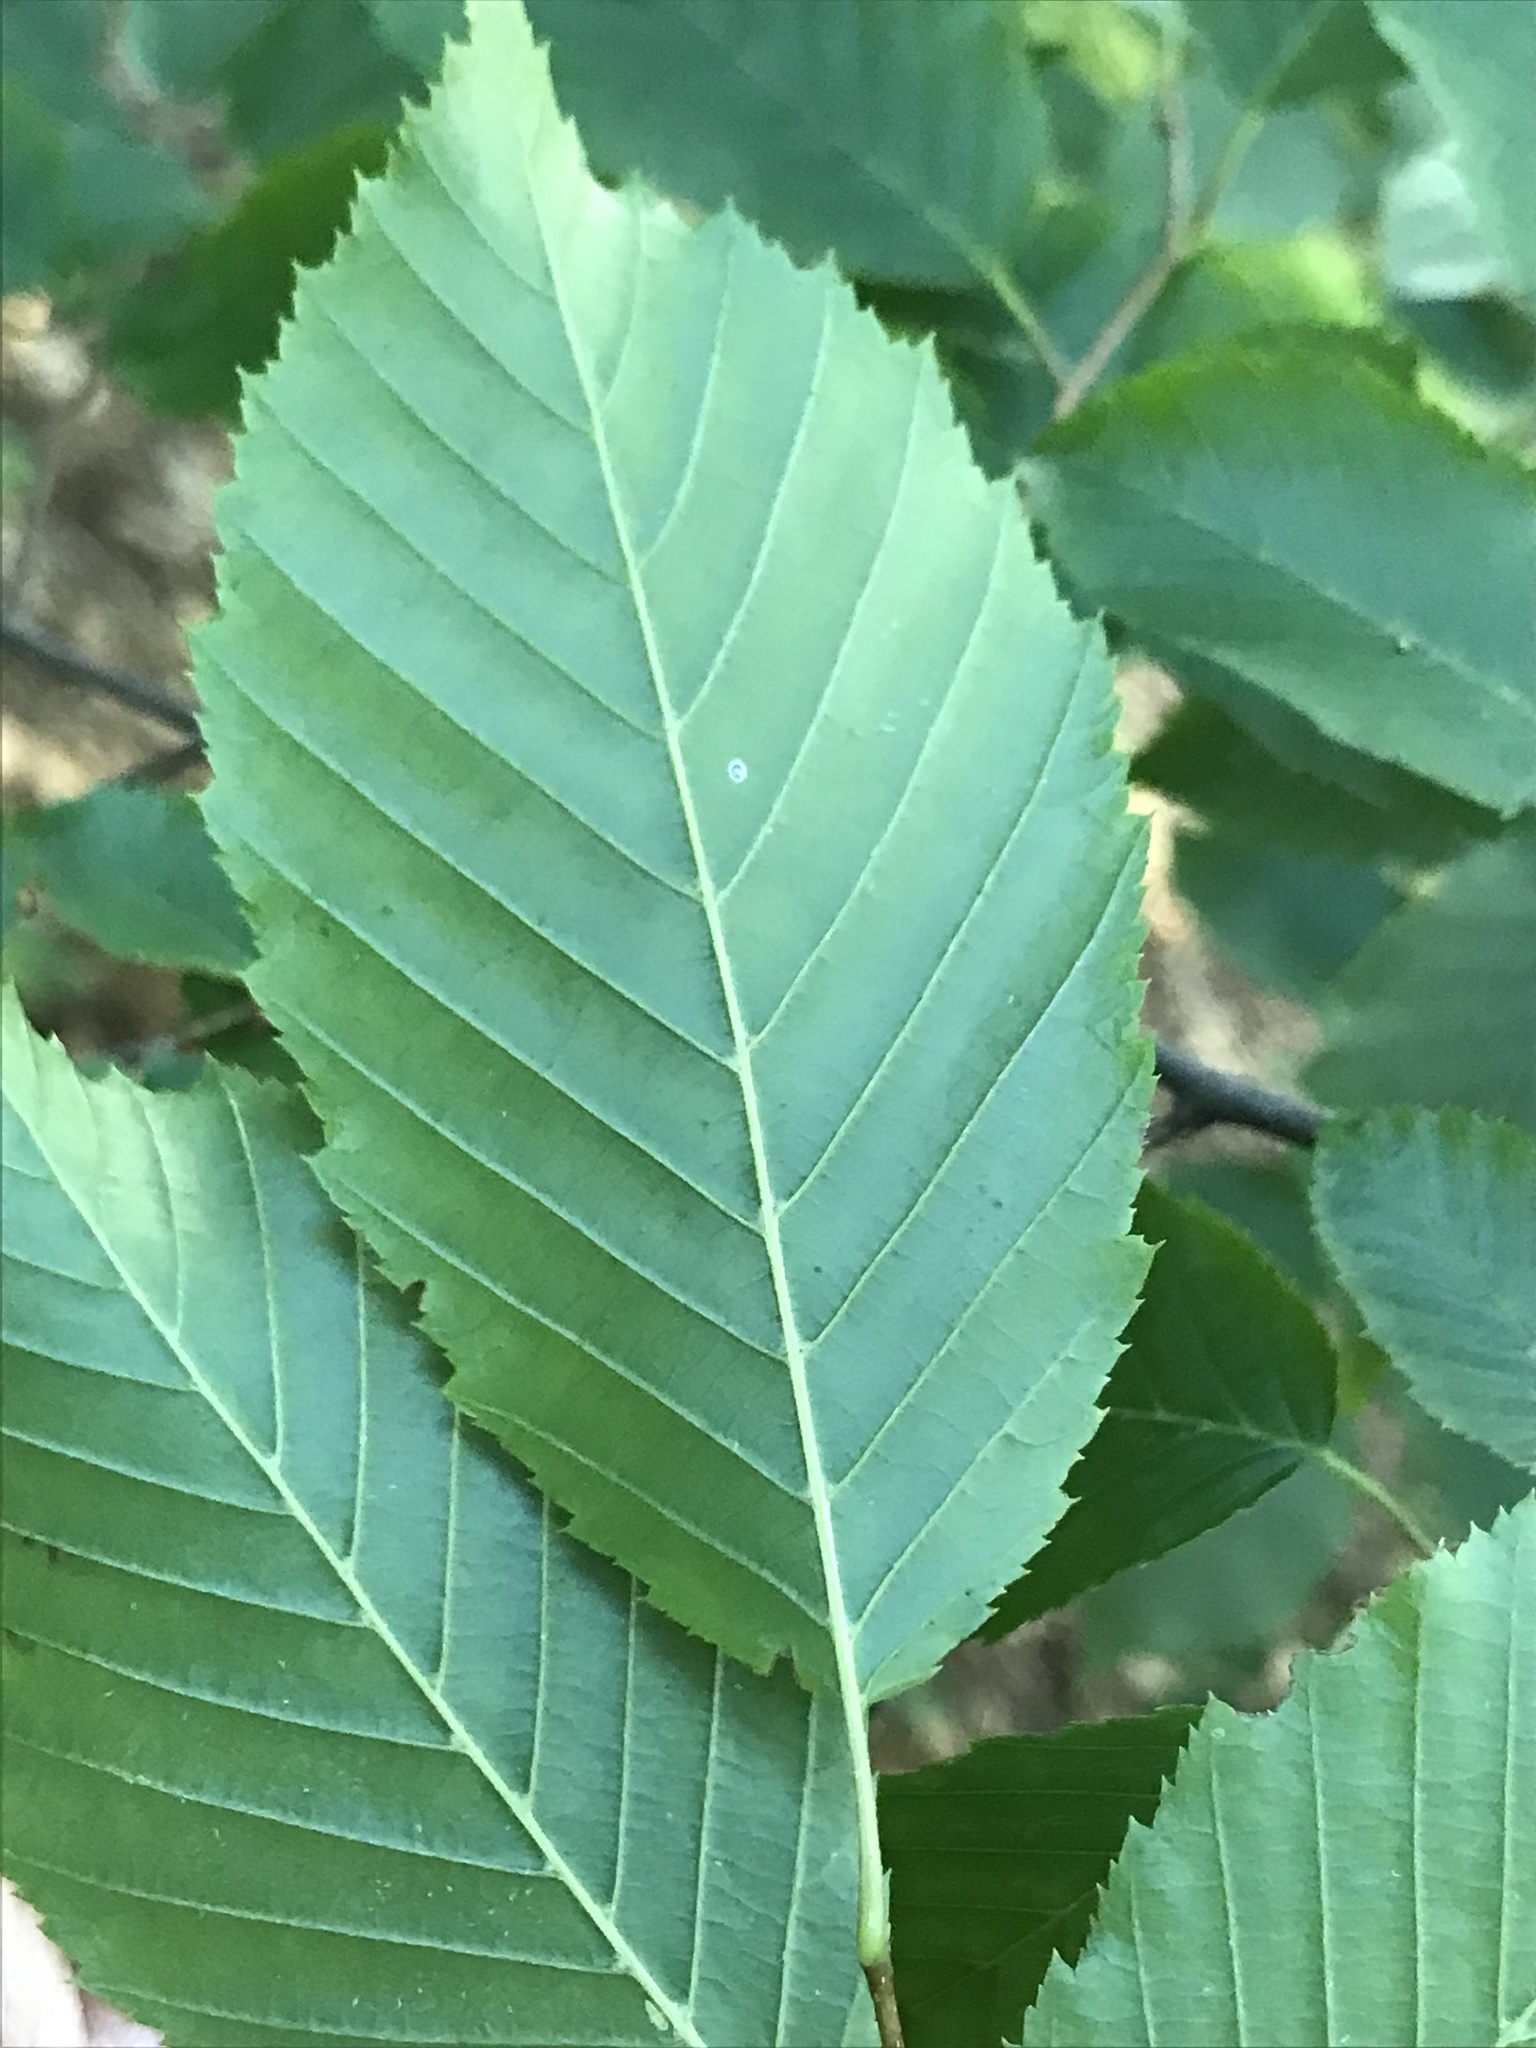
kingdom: Plantae
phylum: Tracheophyta
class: Magnoliopsida
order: Fagales
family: Betulaceae
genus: Carpinus
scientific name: Carpinus caroliniana
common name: American hornbeam
